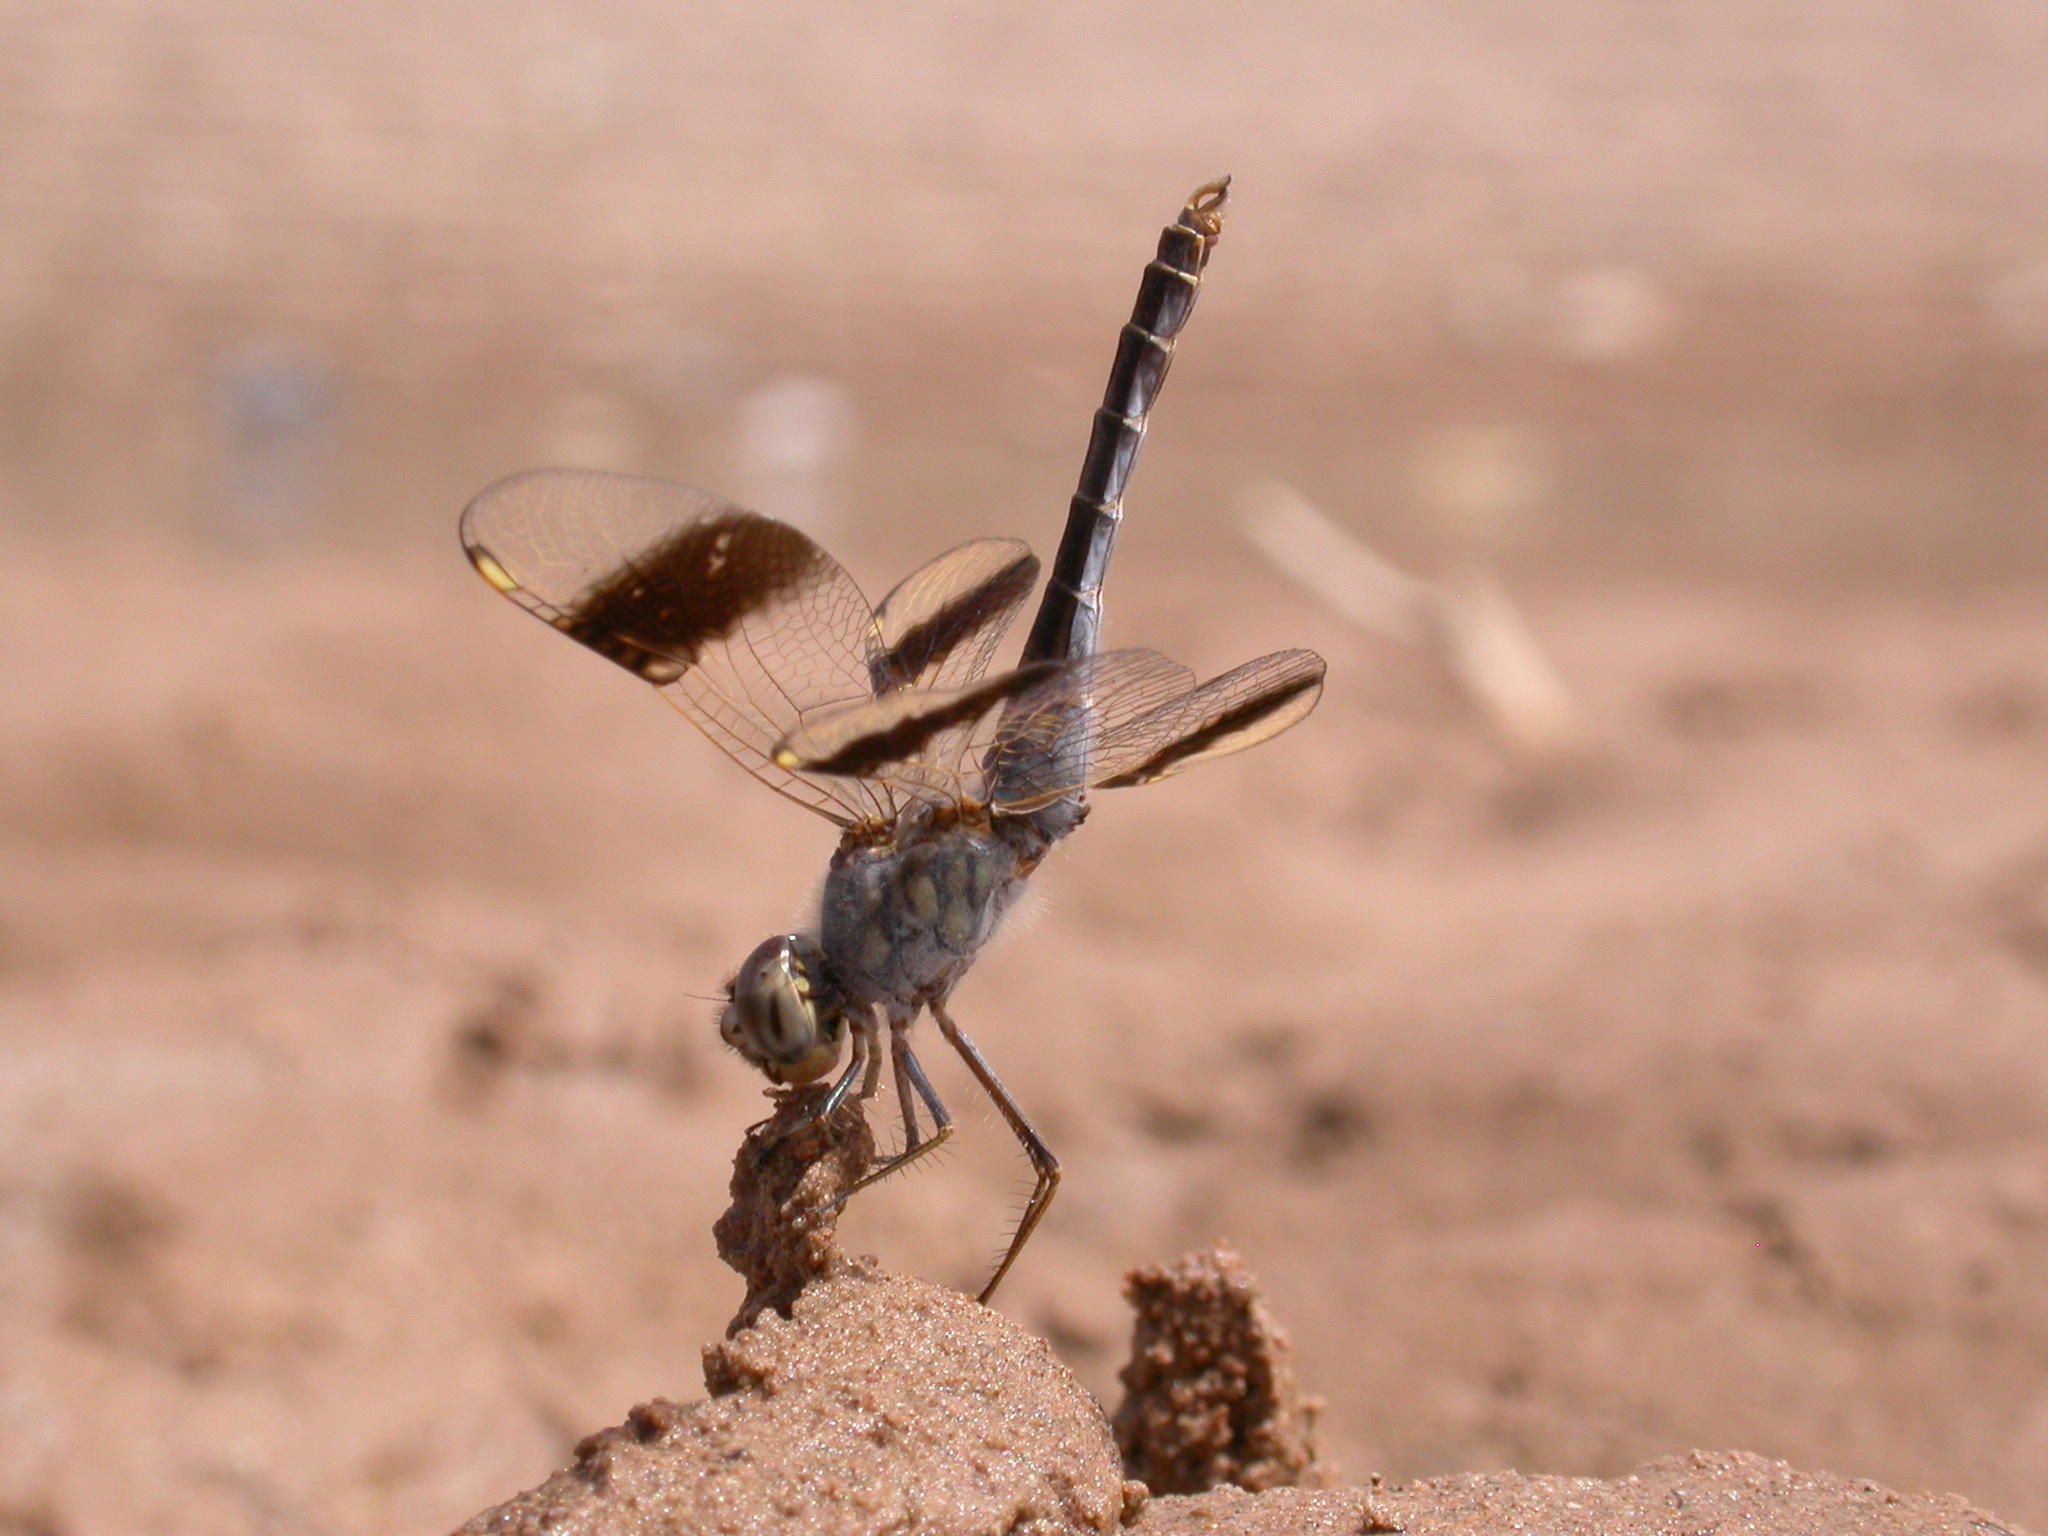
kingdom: Animalia
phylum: Arthropoda
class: Insecta
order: Odonata
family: Libellulidae
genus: Brachythemis
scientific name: Brachythemis impartita
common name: Banded groundling
